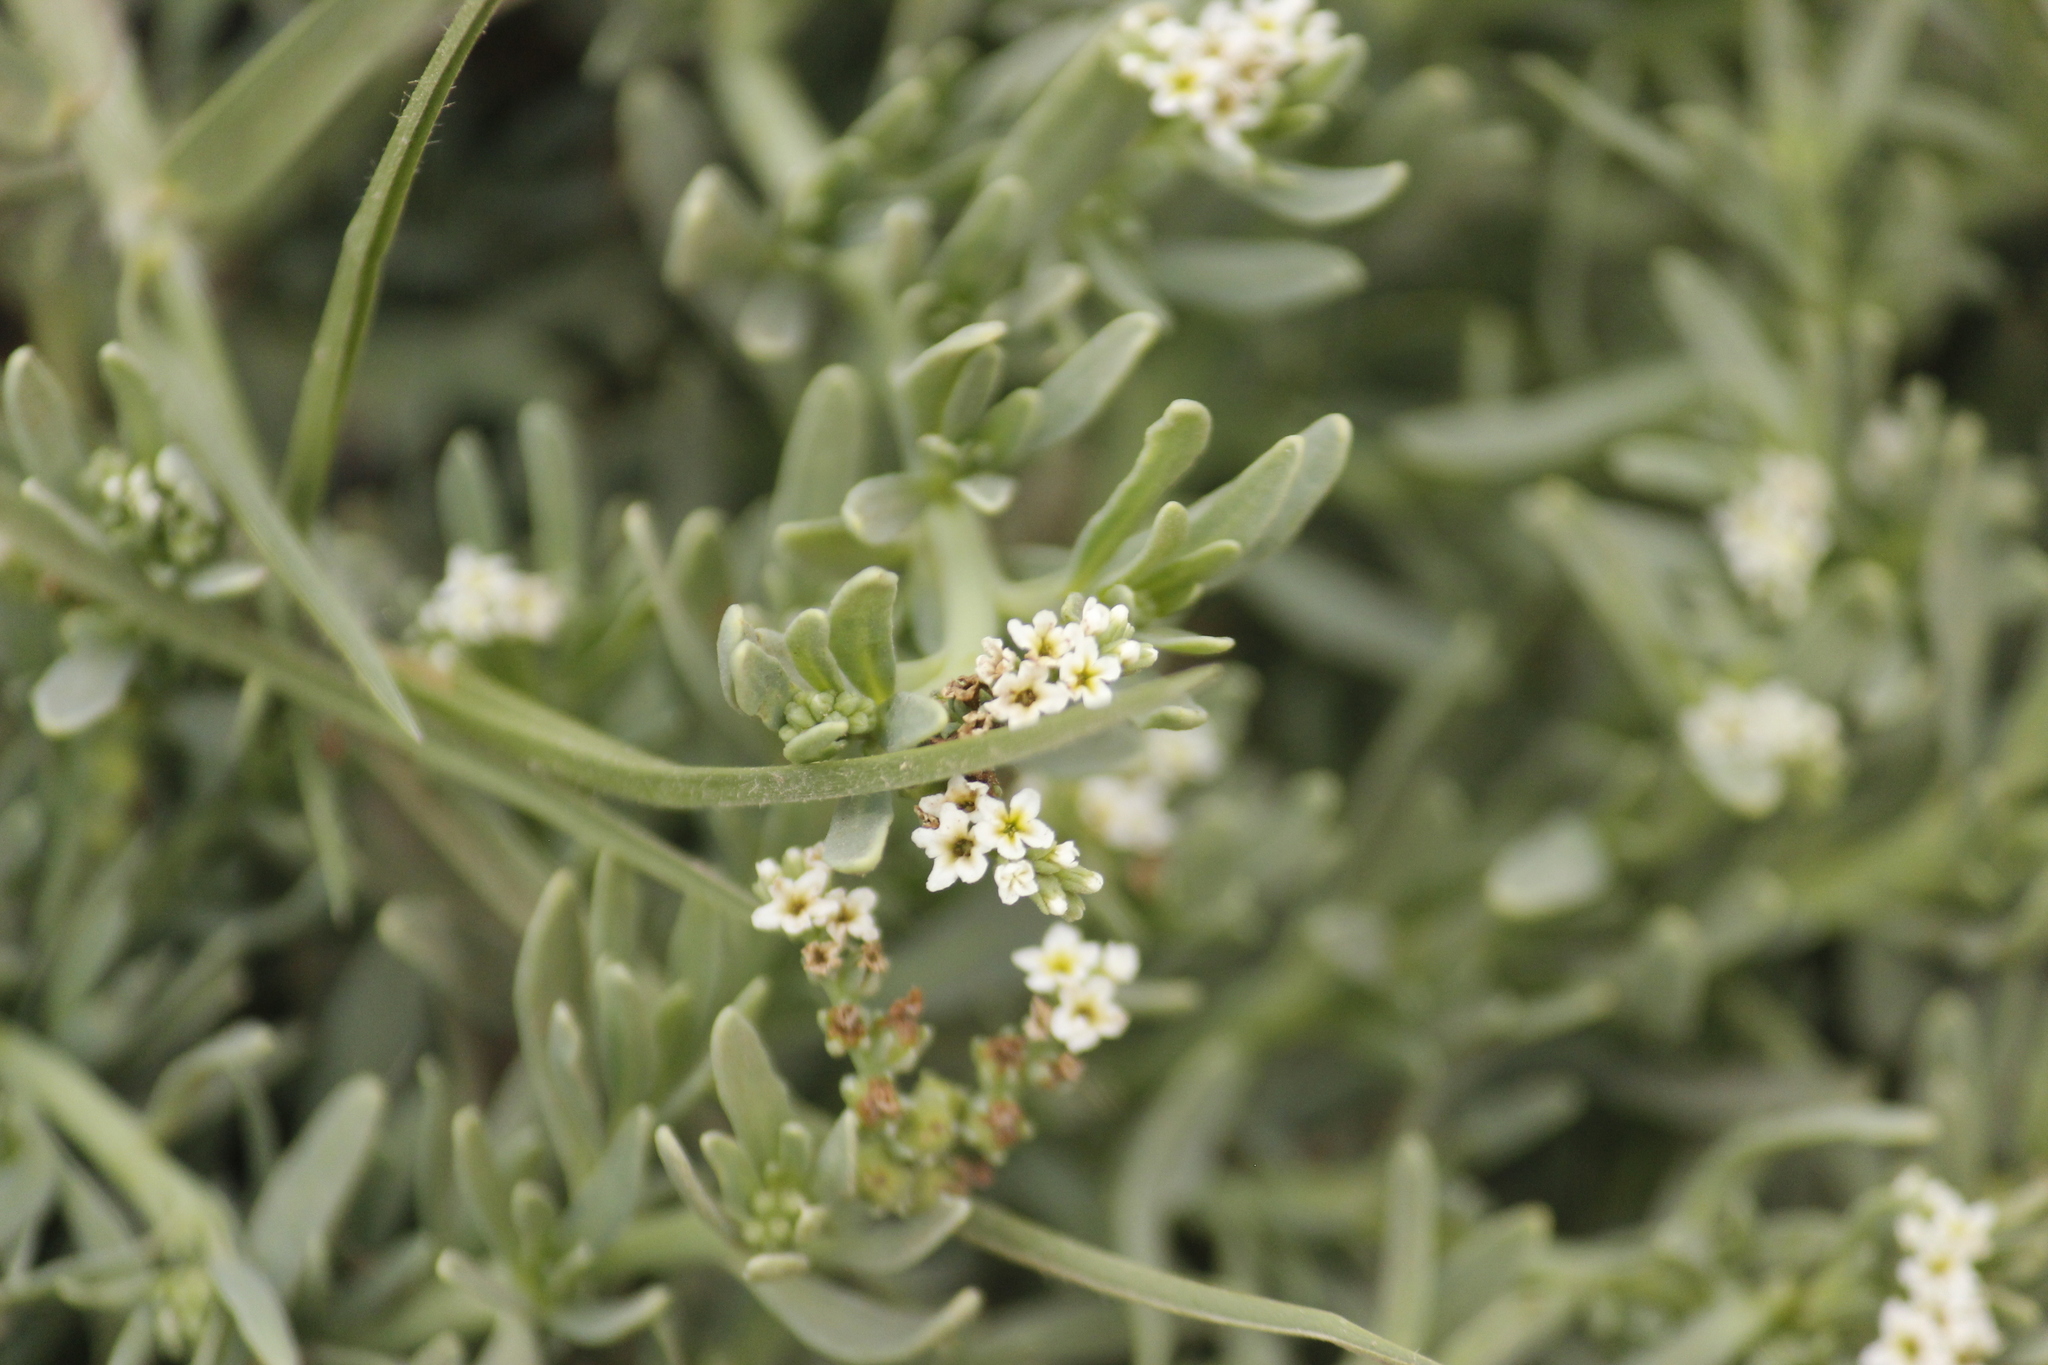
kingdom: Plantae
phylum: Tracheophyta
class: Magnoliopsida
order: Boraginales
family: Heliotropiaceae
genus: Heliotropium
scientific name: Heliotropium curassavicum
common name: Seaside heliotrope
